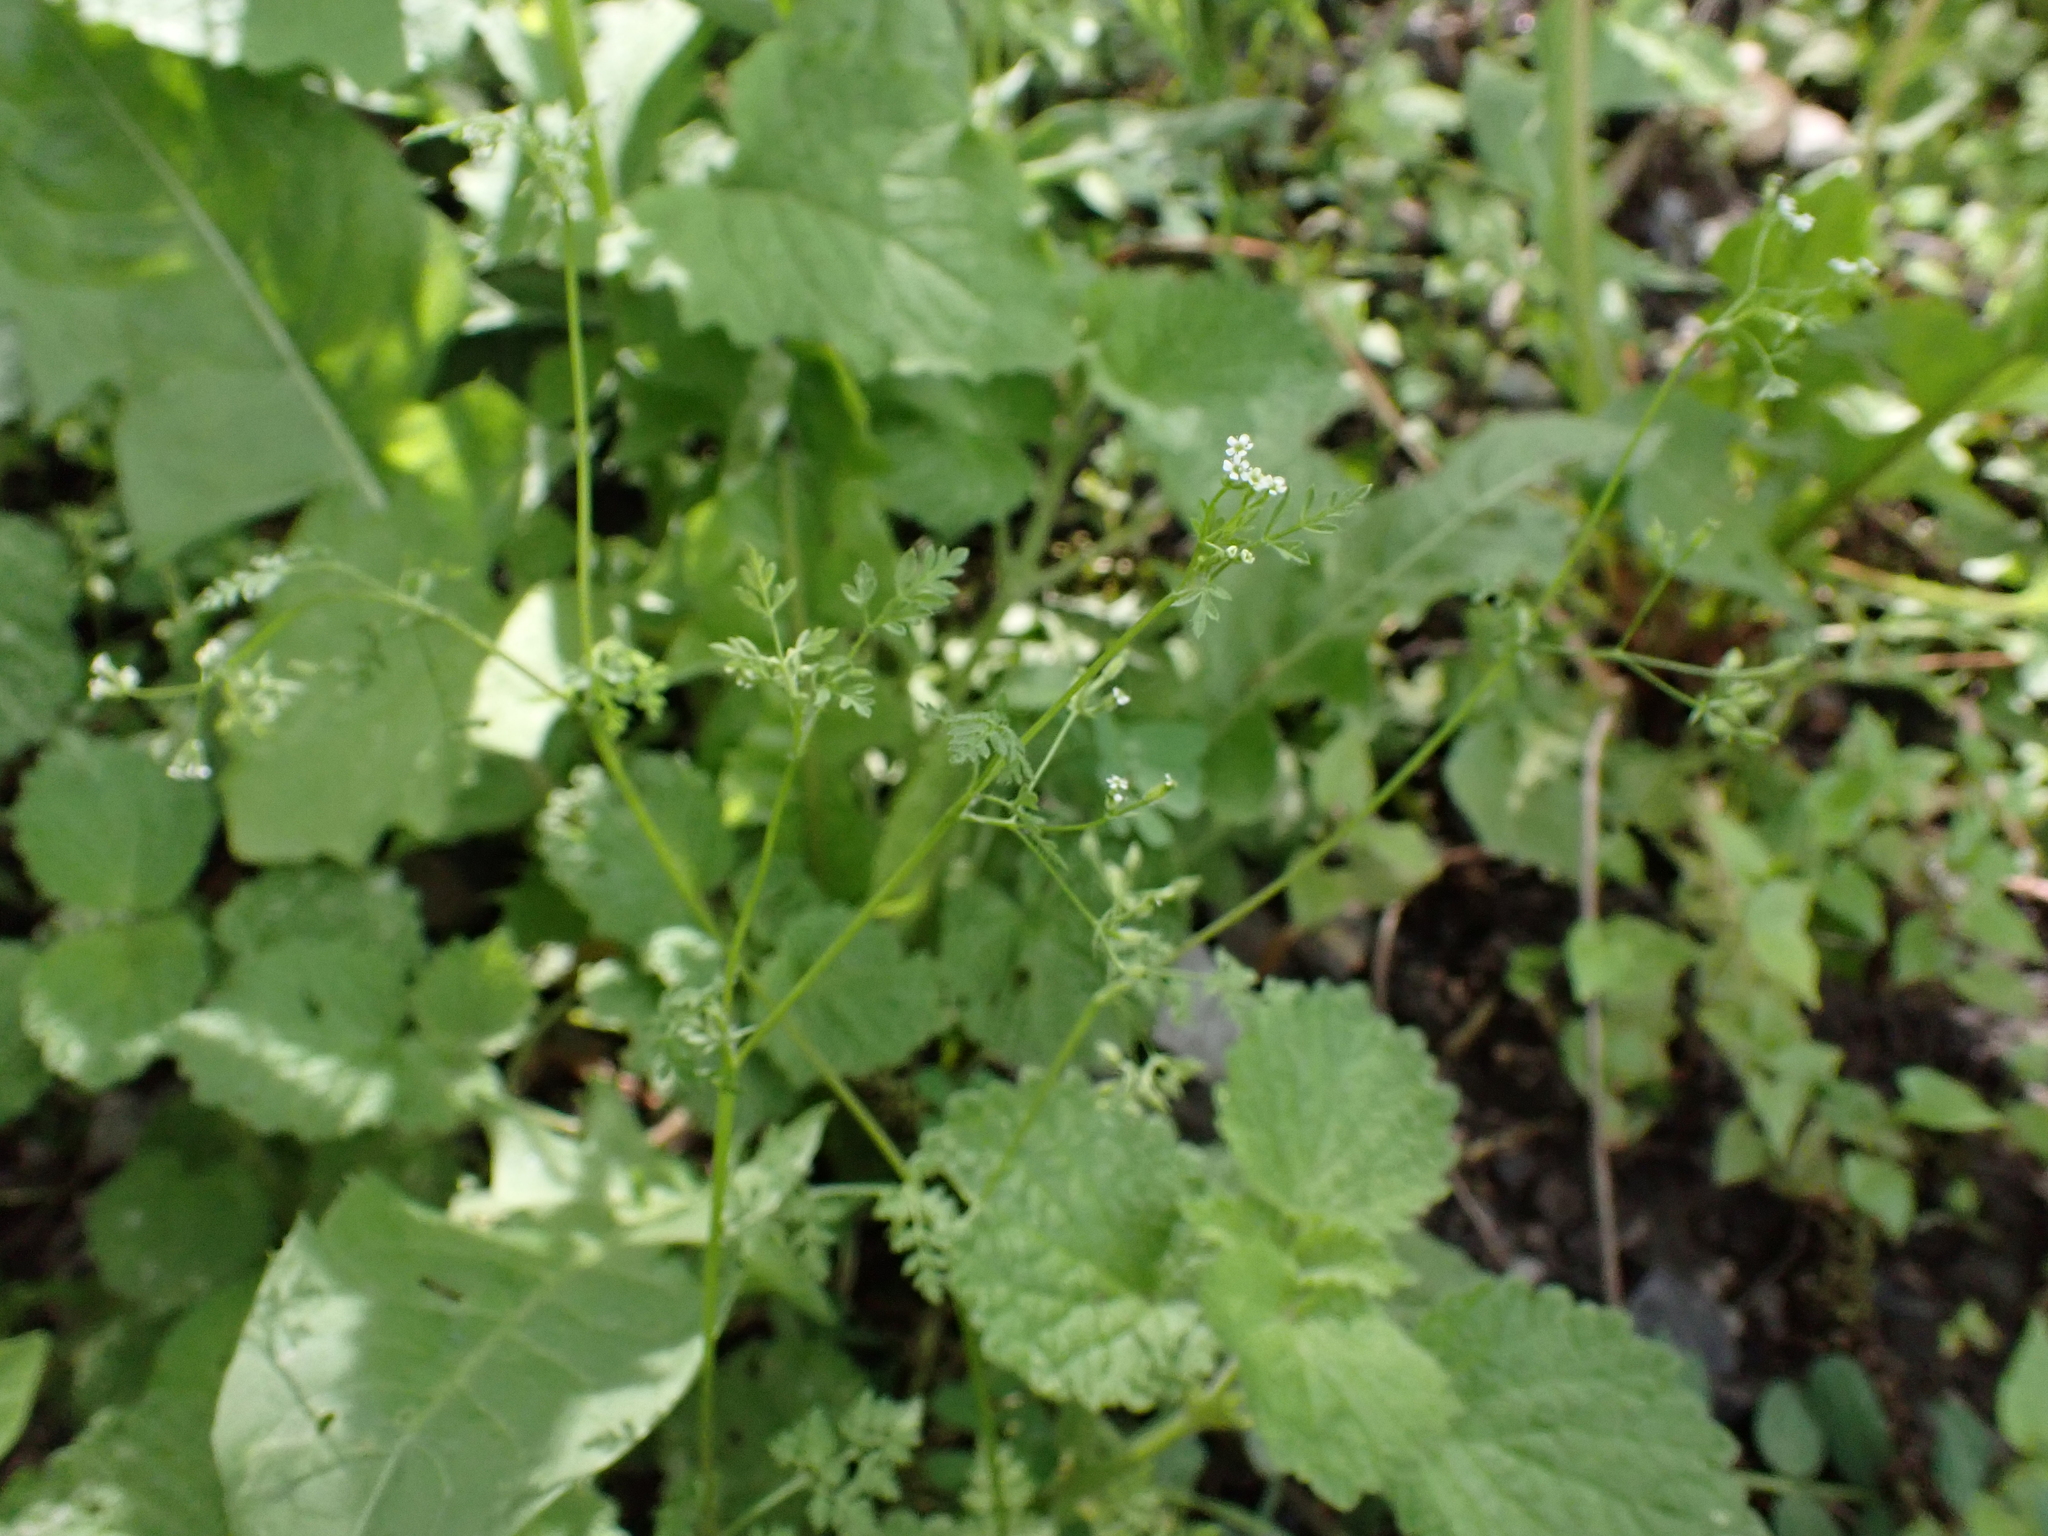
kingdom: Plantae
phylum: Tracheophyta
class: Magnoliopsida
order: Apiales
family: Apiaceae
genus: Anthriscus
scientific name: Anthriscus caucalis
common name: Bur chervil
